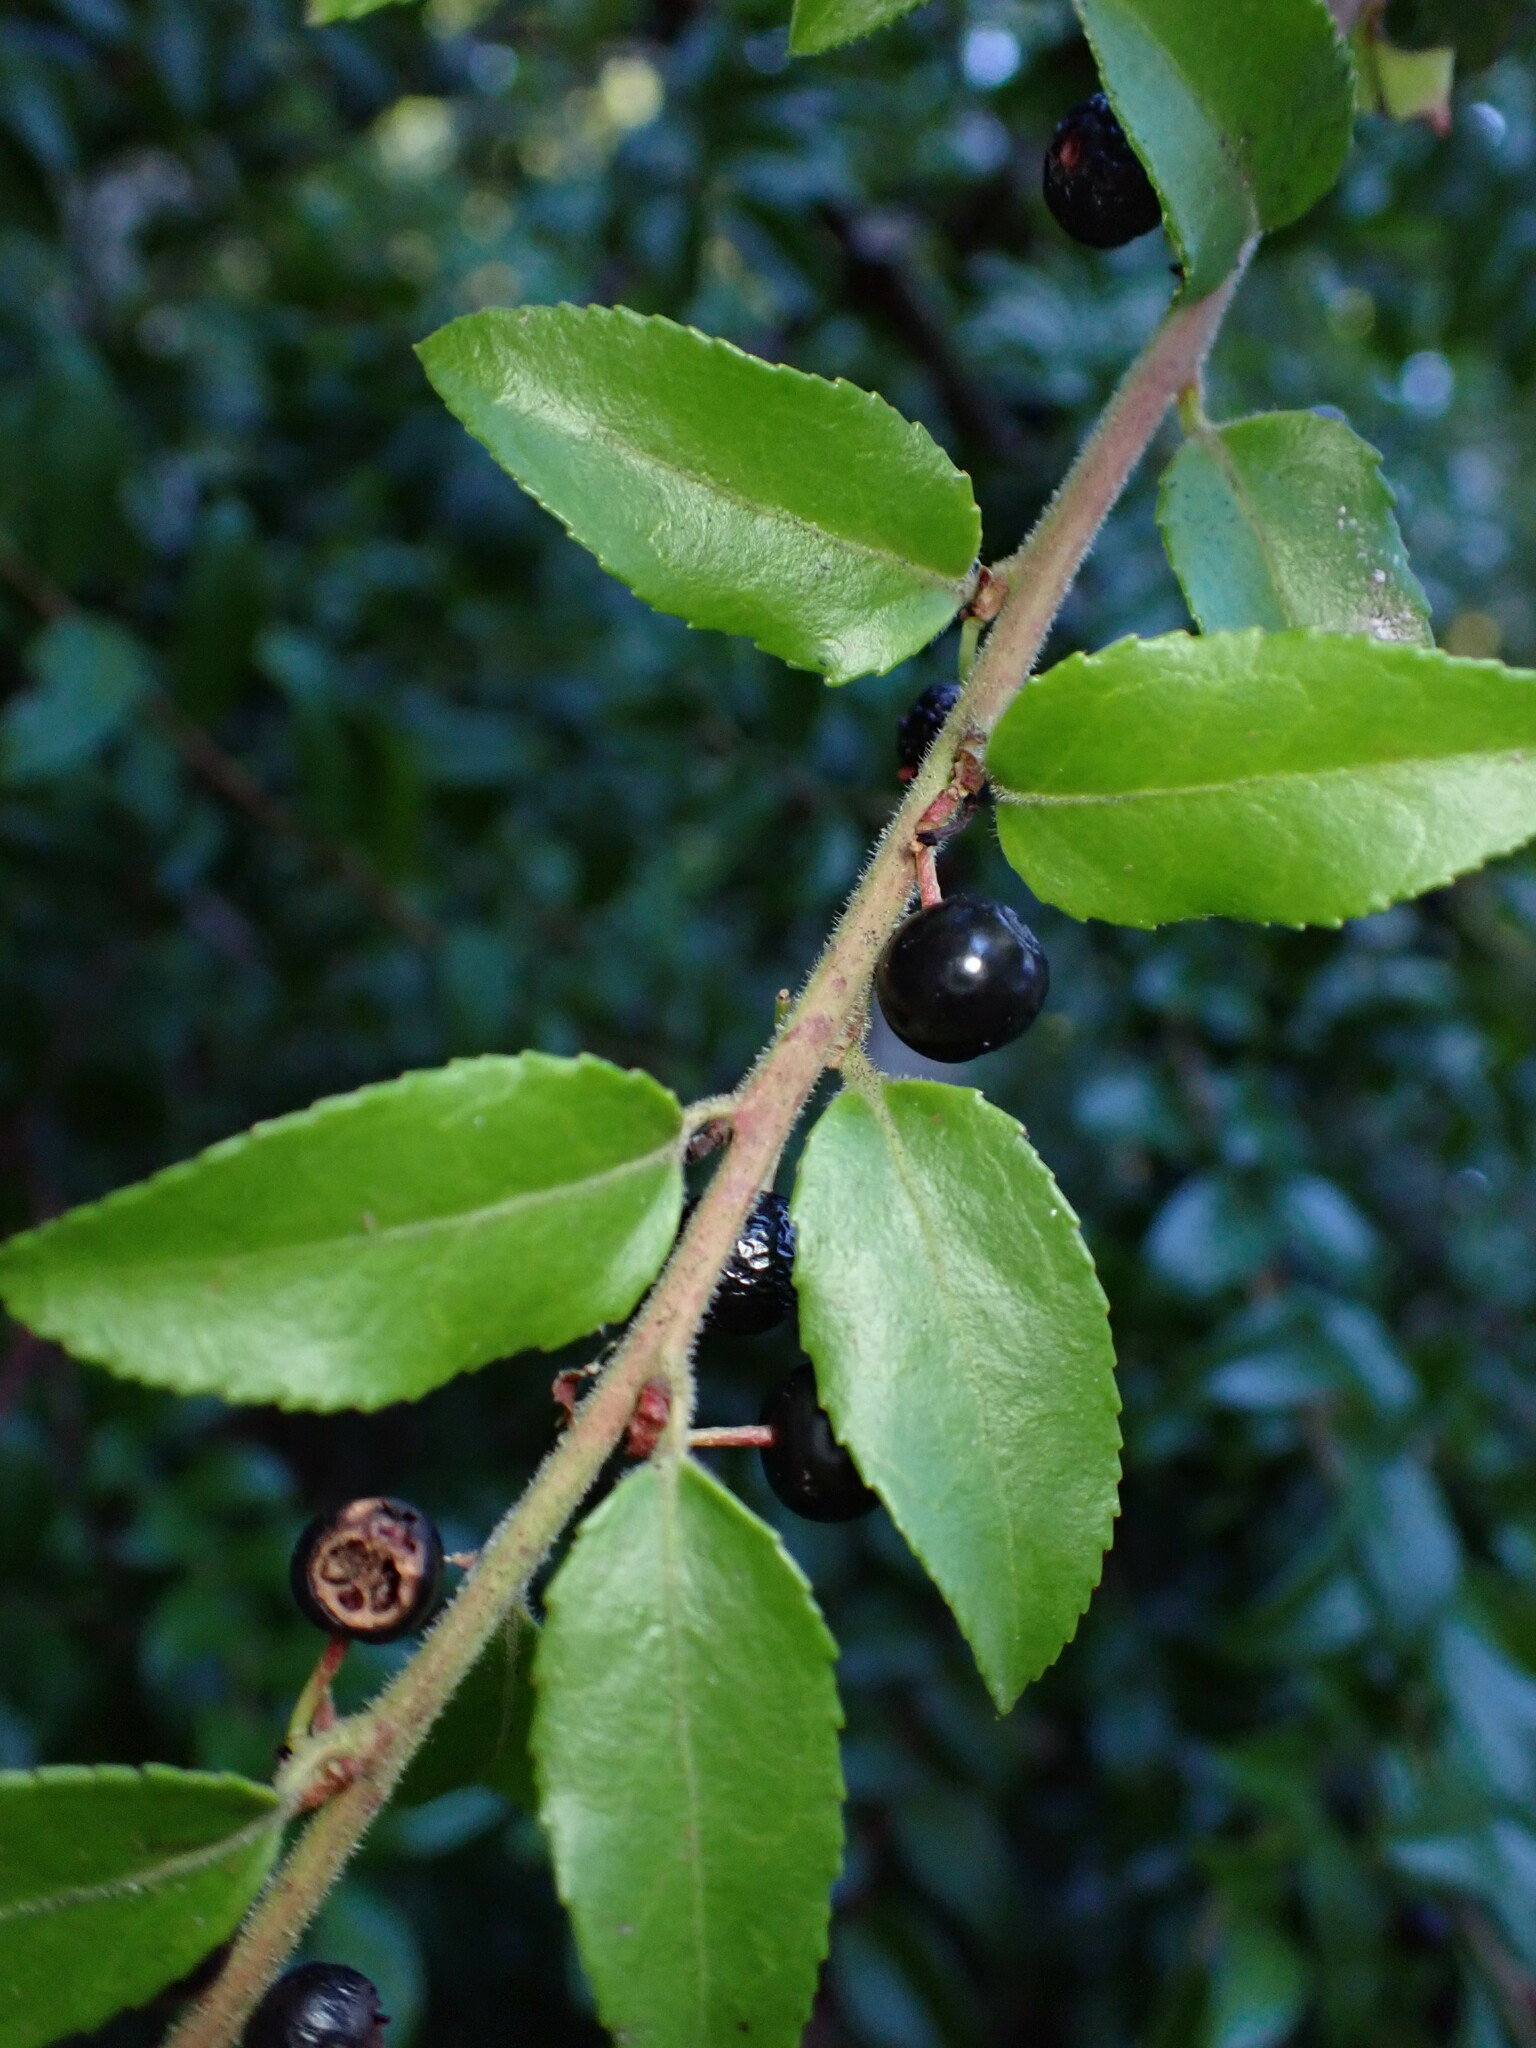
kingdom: Plantae
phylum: Tracheophyta
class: Magnoliopsida
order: Ericales
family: Ericaceae
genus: Vaccinium
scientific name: Vaccinium ovatum
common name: California-huckleberry
